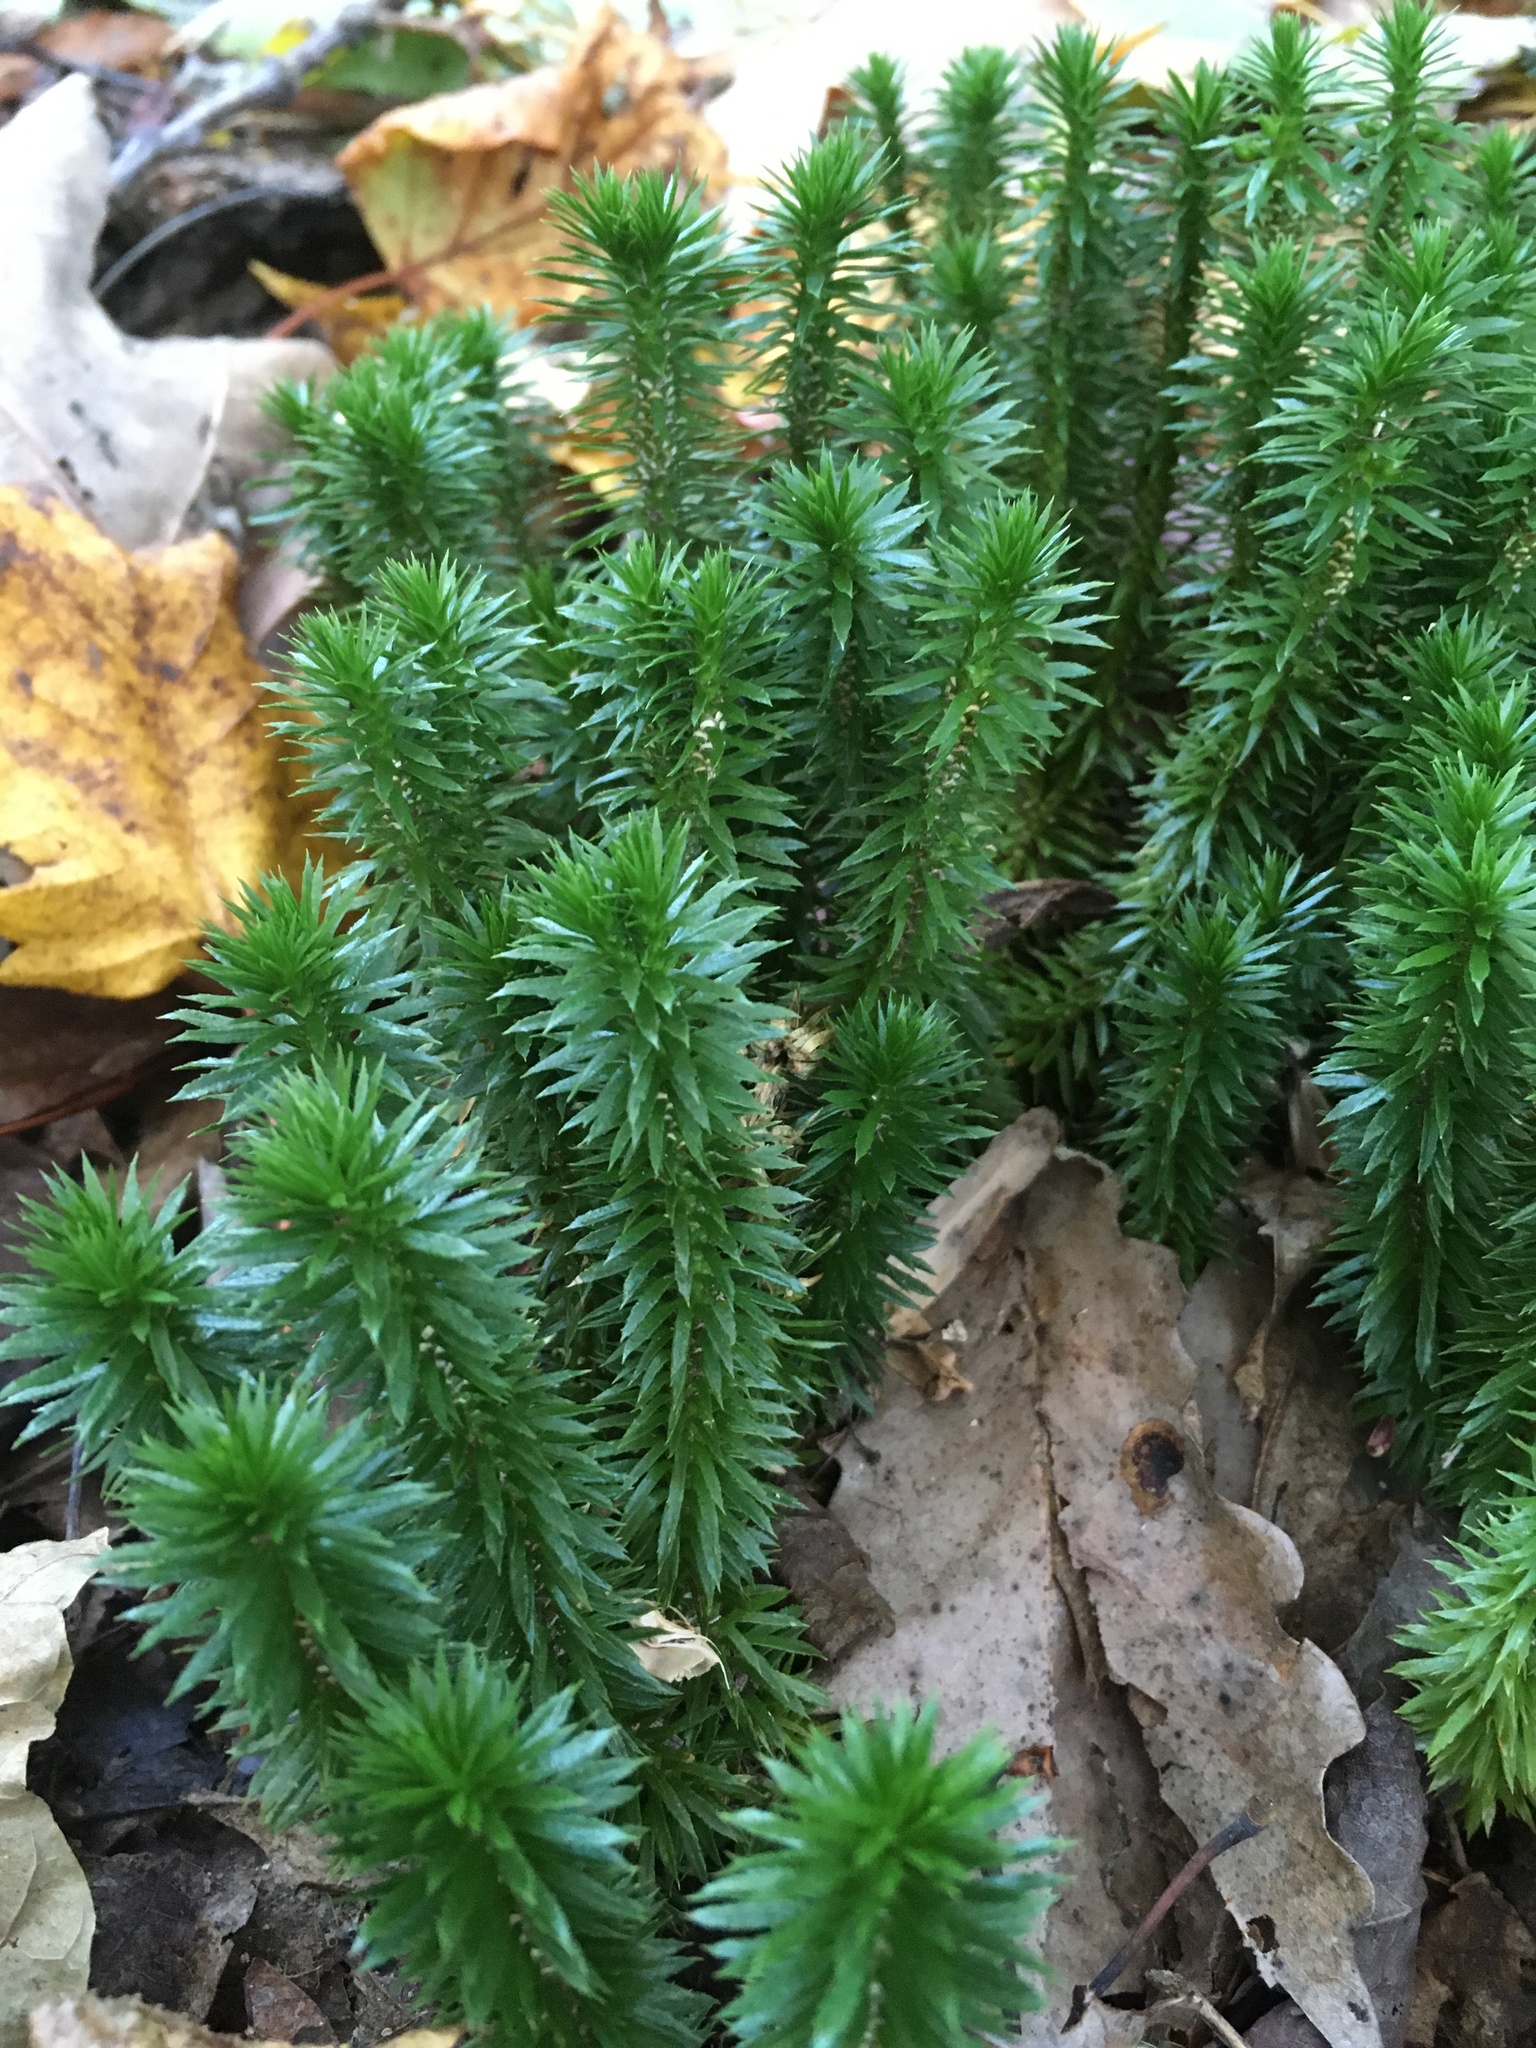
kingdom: Plantae
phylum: Tracheophyta
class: Lycopodiopsida
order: Lycopodiales
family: Lycopodiaceae
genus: Huperzia
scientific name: Huperzia lucidula
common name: Shining clubmoss
